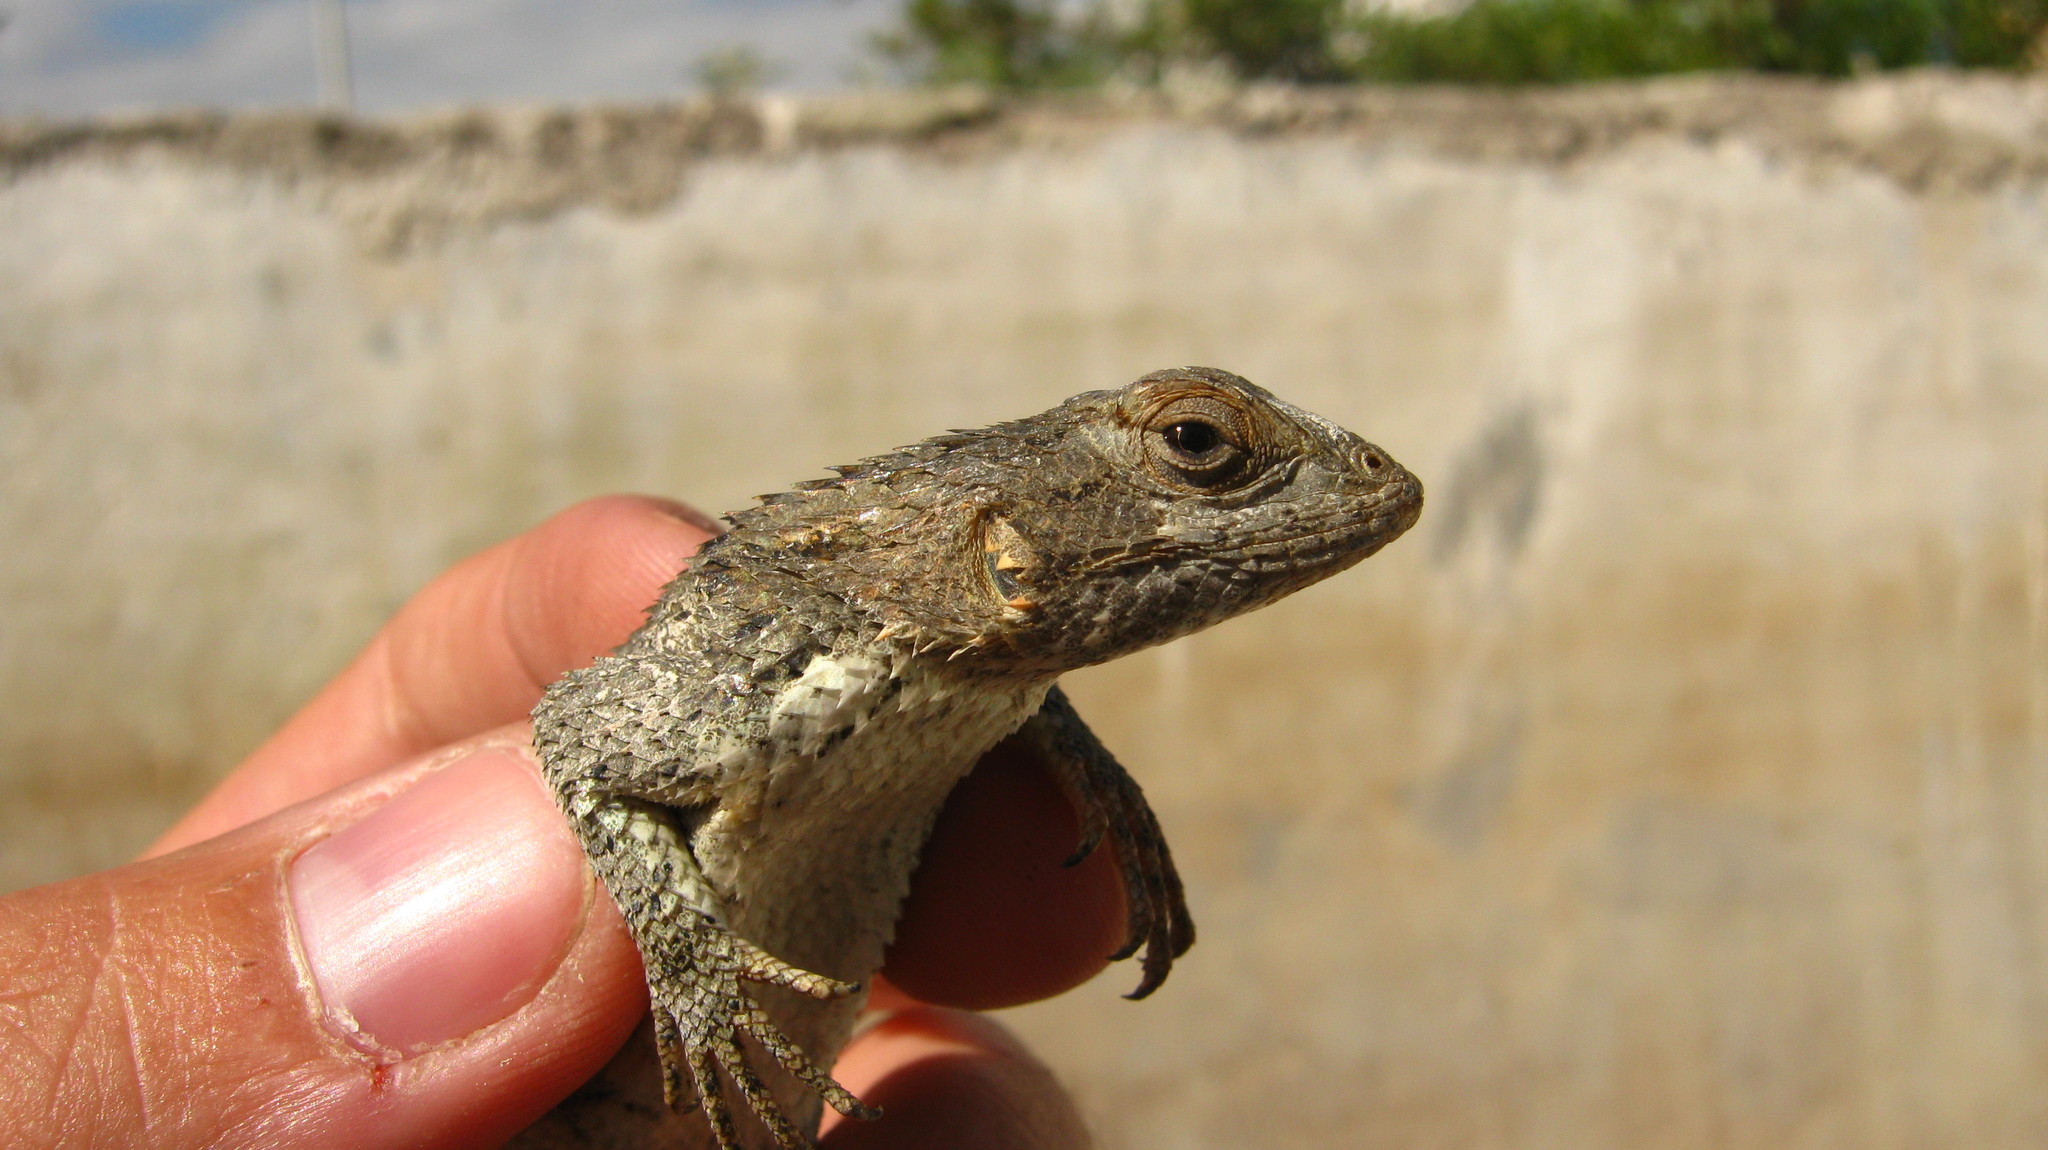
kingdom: Animalia
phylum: Chordata
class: Squamata
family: Phrynosomatidae
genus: Sceloporus
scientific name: Sceloporus spinosus
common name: Blue-spotted spiny lizard [caeruleopunctatus]
